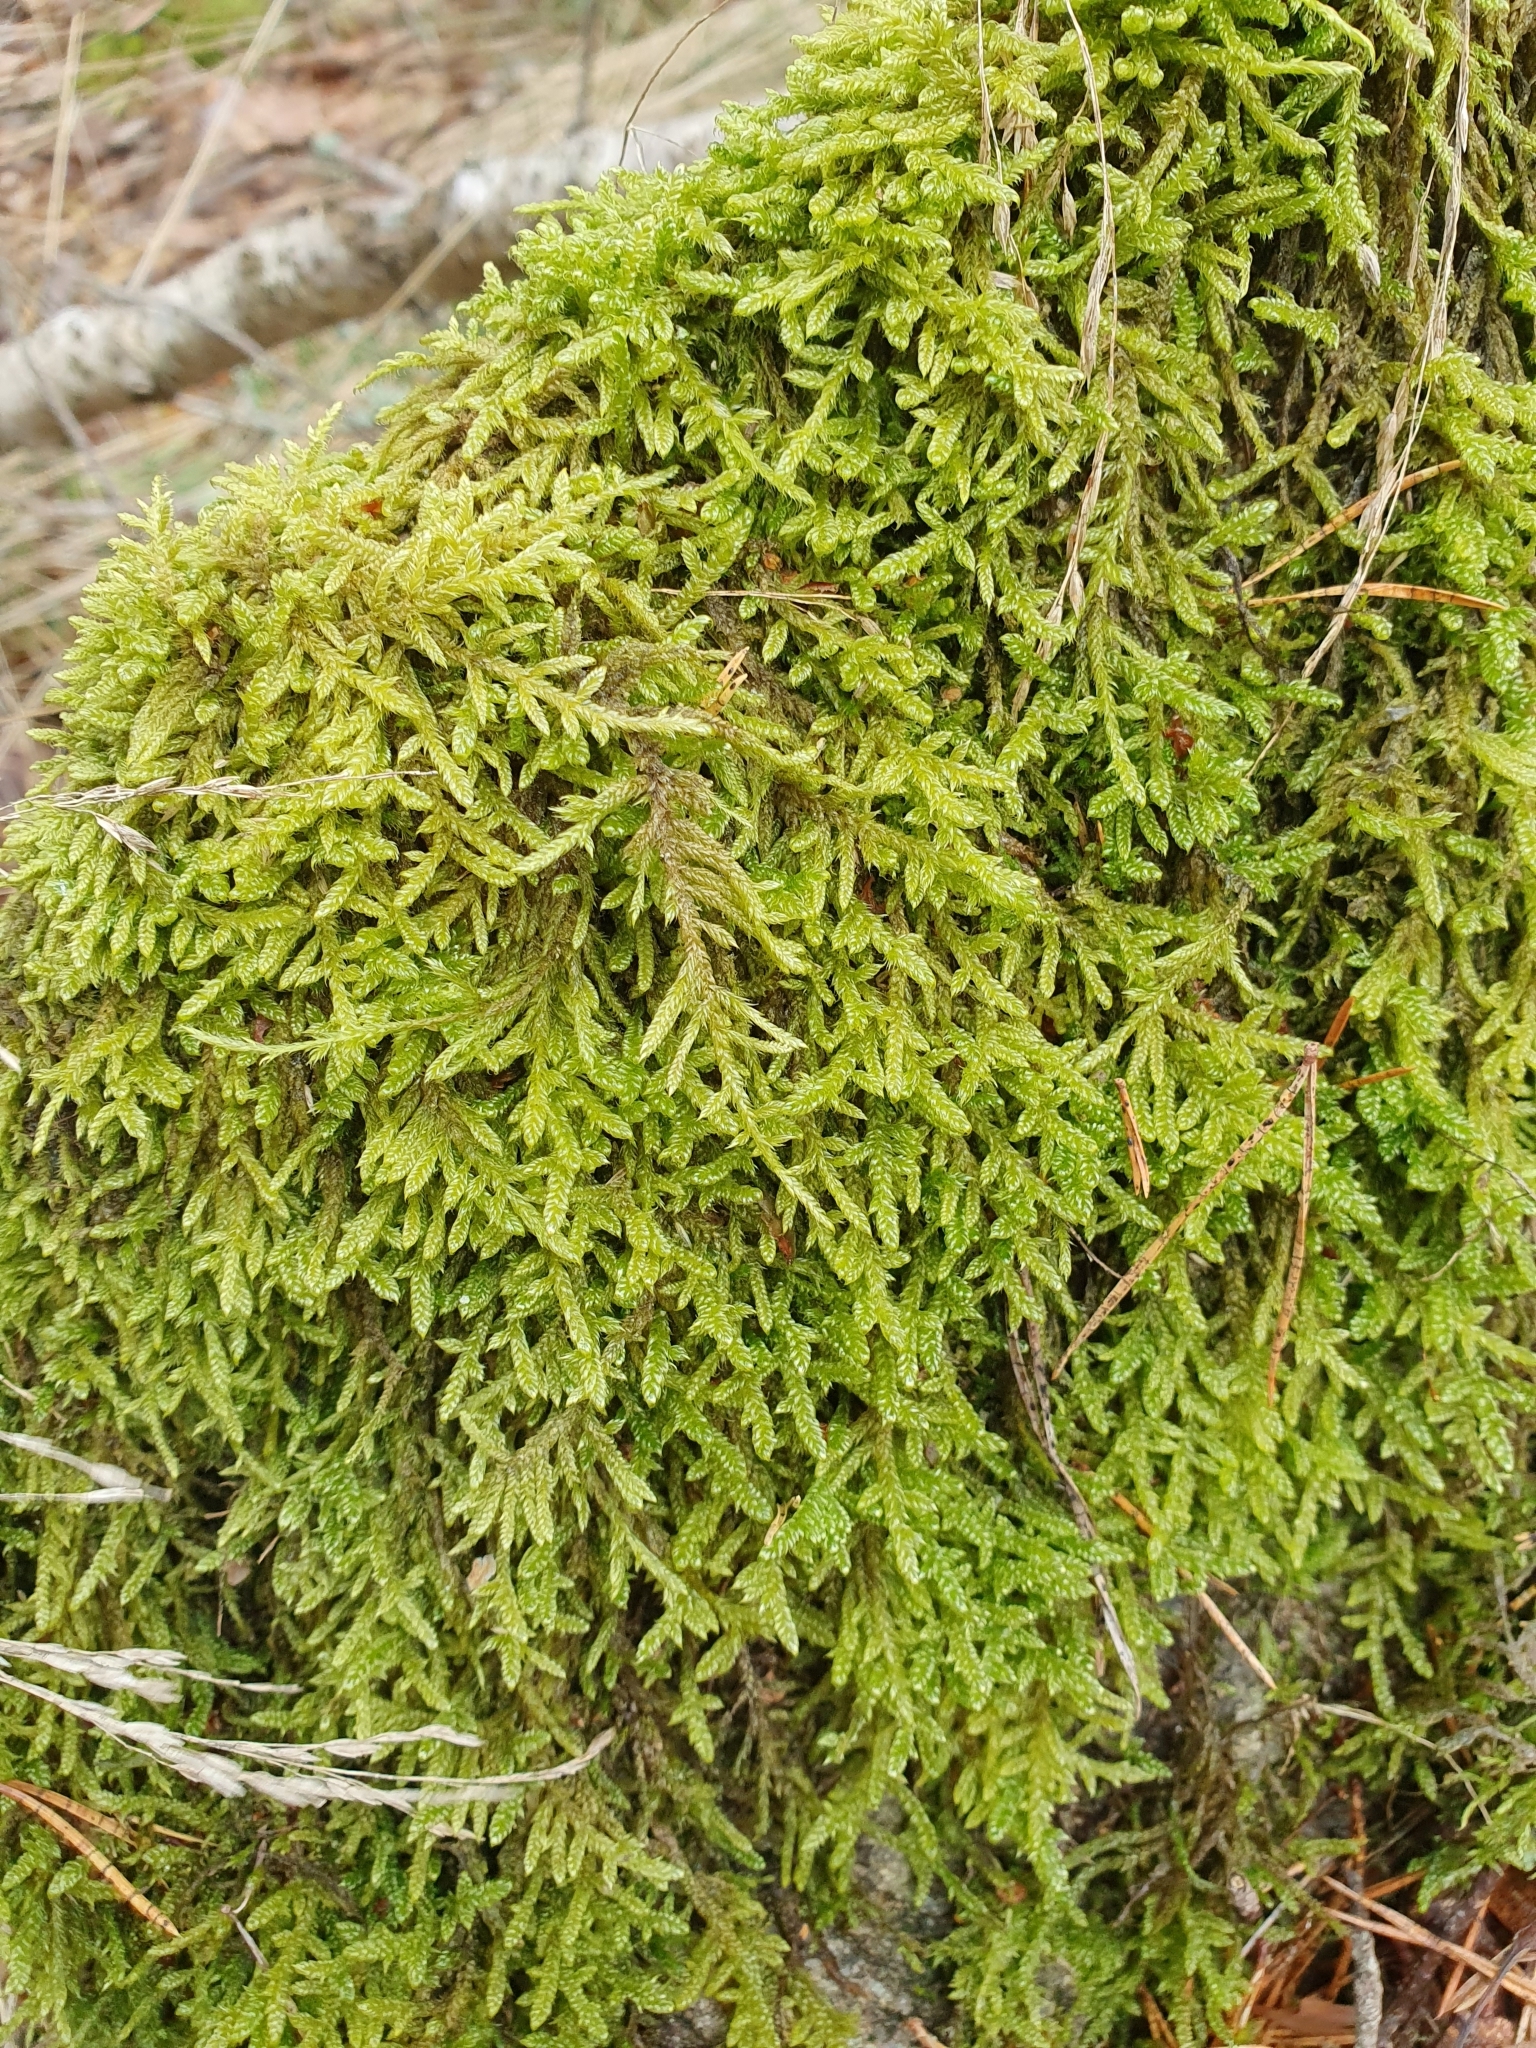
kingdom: Plantae
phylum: Bryophyta
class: Bryopsida
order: Hypnales
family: Hypnaceae
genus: Hypnum
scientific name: Hypnum cupressiforme
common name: Cypress-leaved plait-moss
